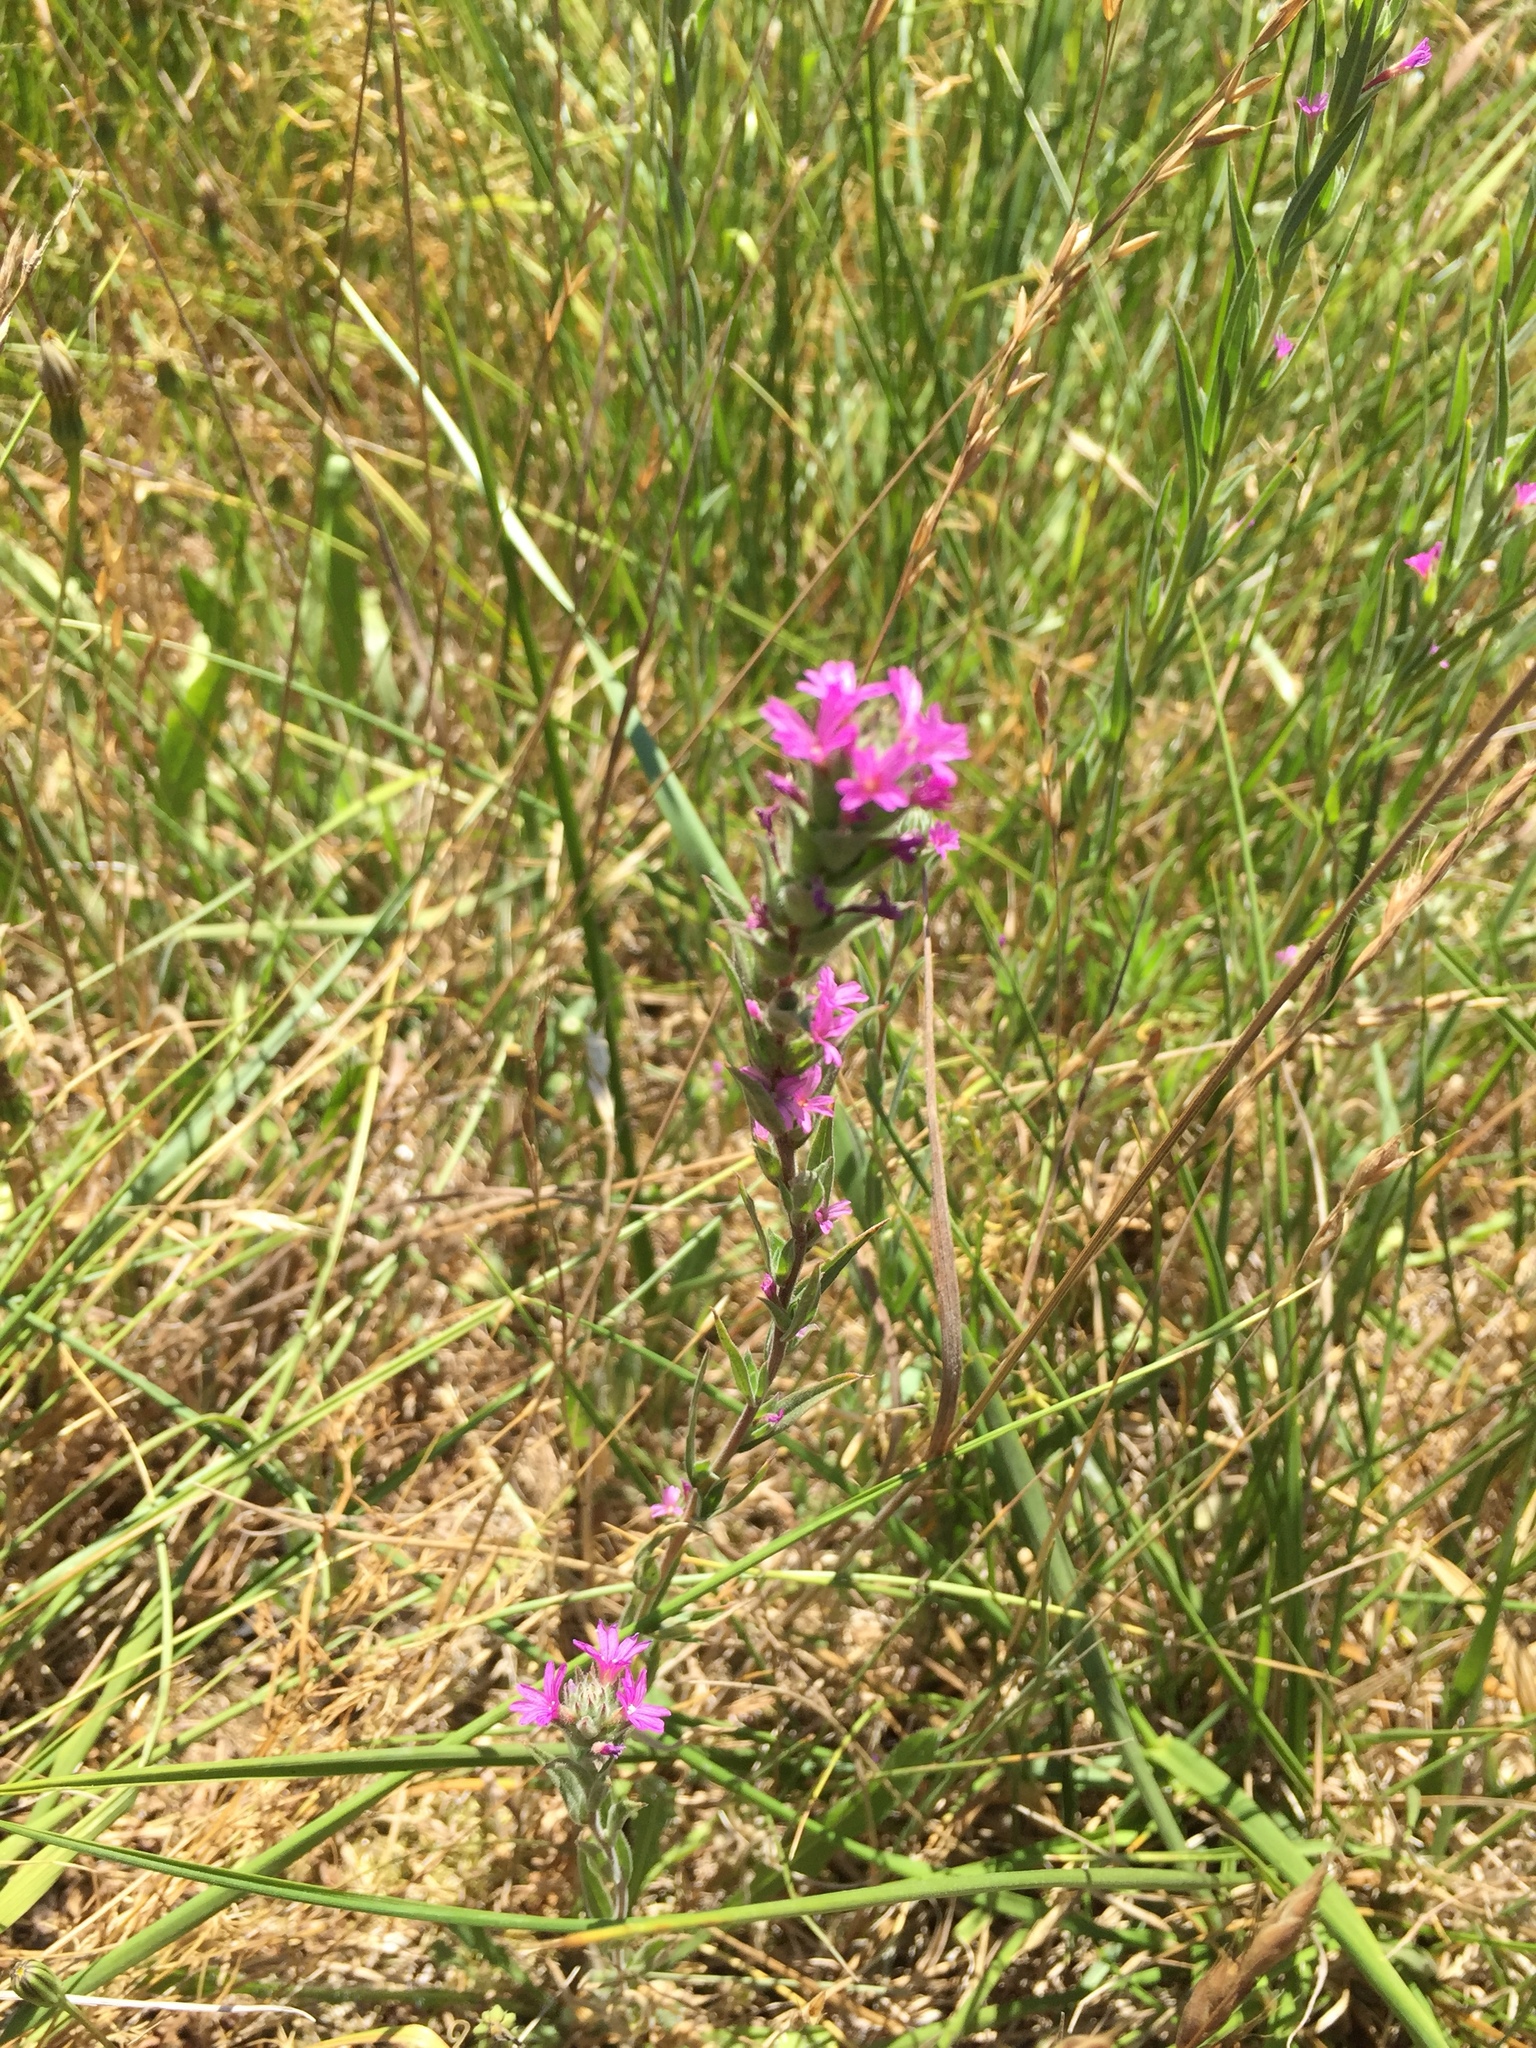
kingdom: Plantae
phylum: Tracheophyta
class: Magnoliopsida
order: Myrtales
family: Onagraceae
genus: Epilobium
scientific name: Epilobium densiflorum
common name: Dense spike-primrose
